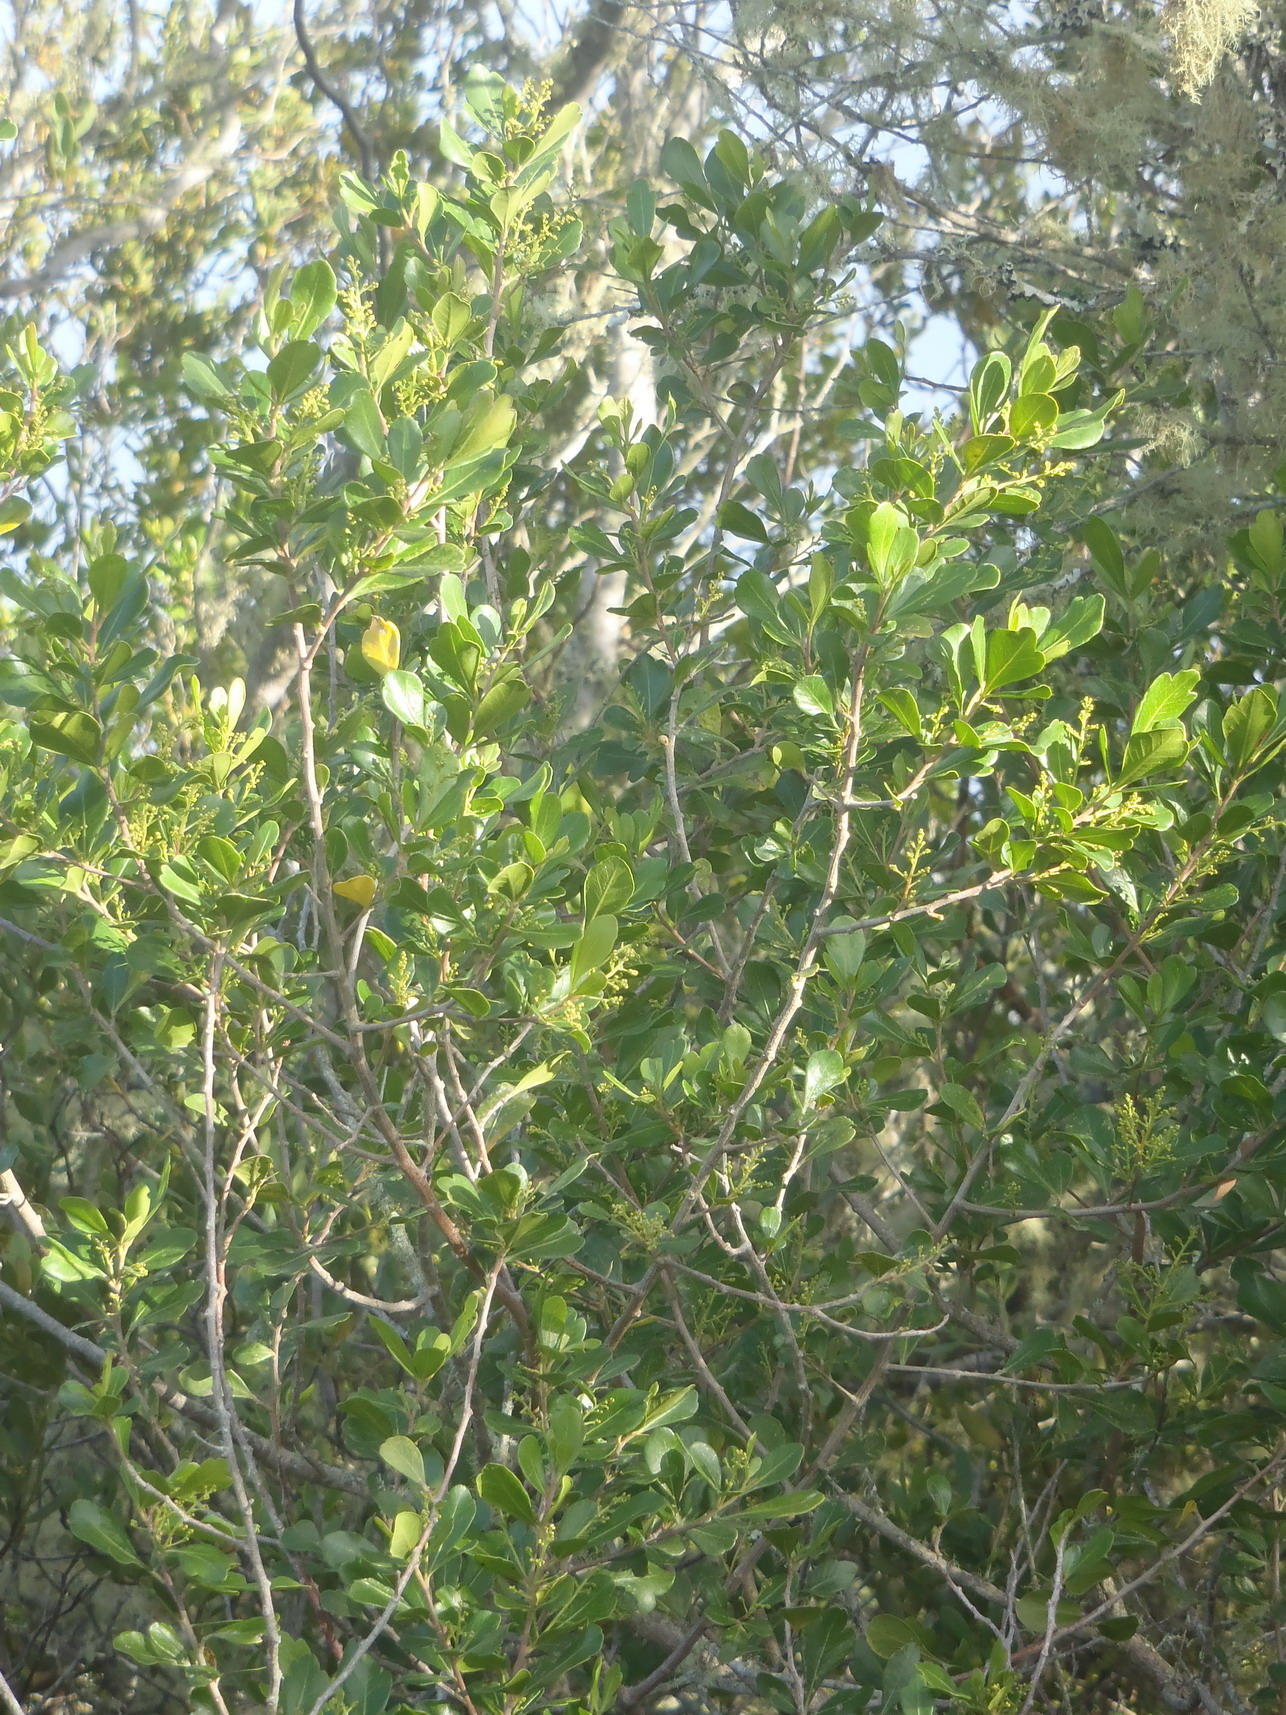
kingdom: Plantae
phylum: Tracheophyta
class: Magnoliopsida
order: Sapindales
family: Anacardiaceae
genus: Searsia
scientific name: Searsia lucida
